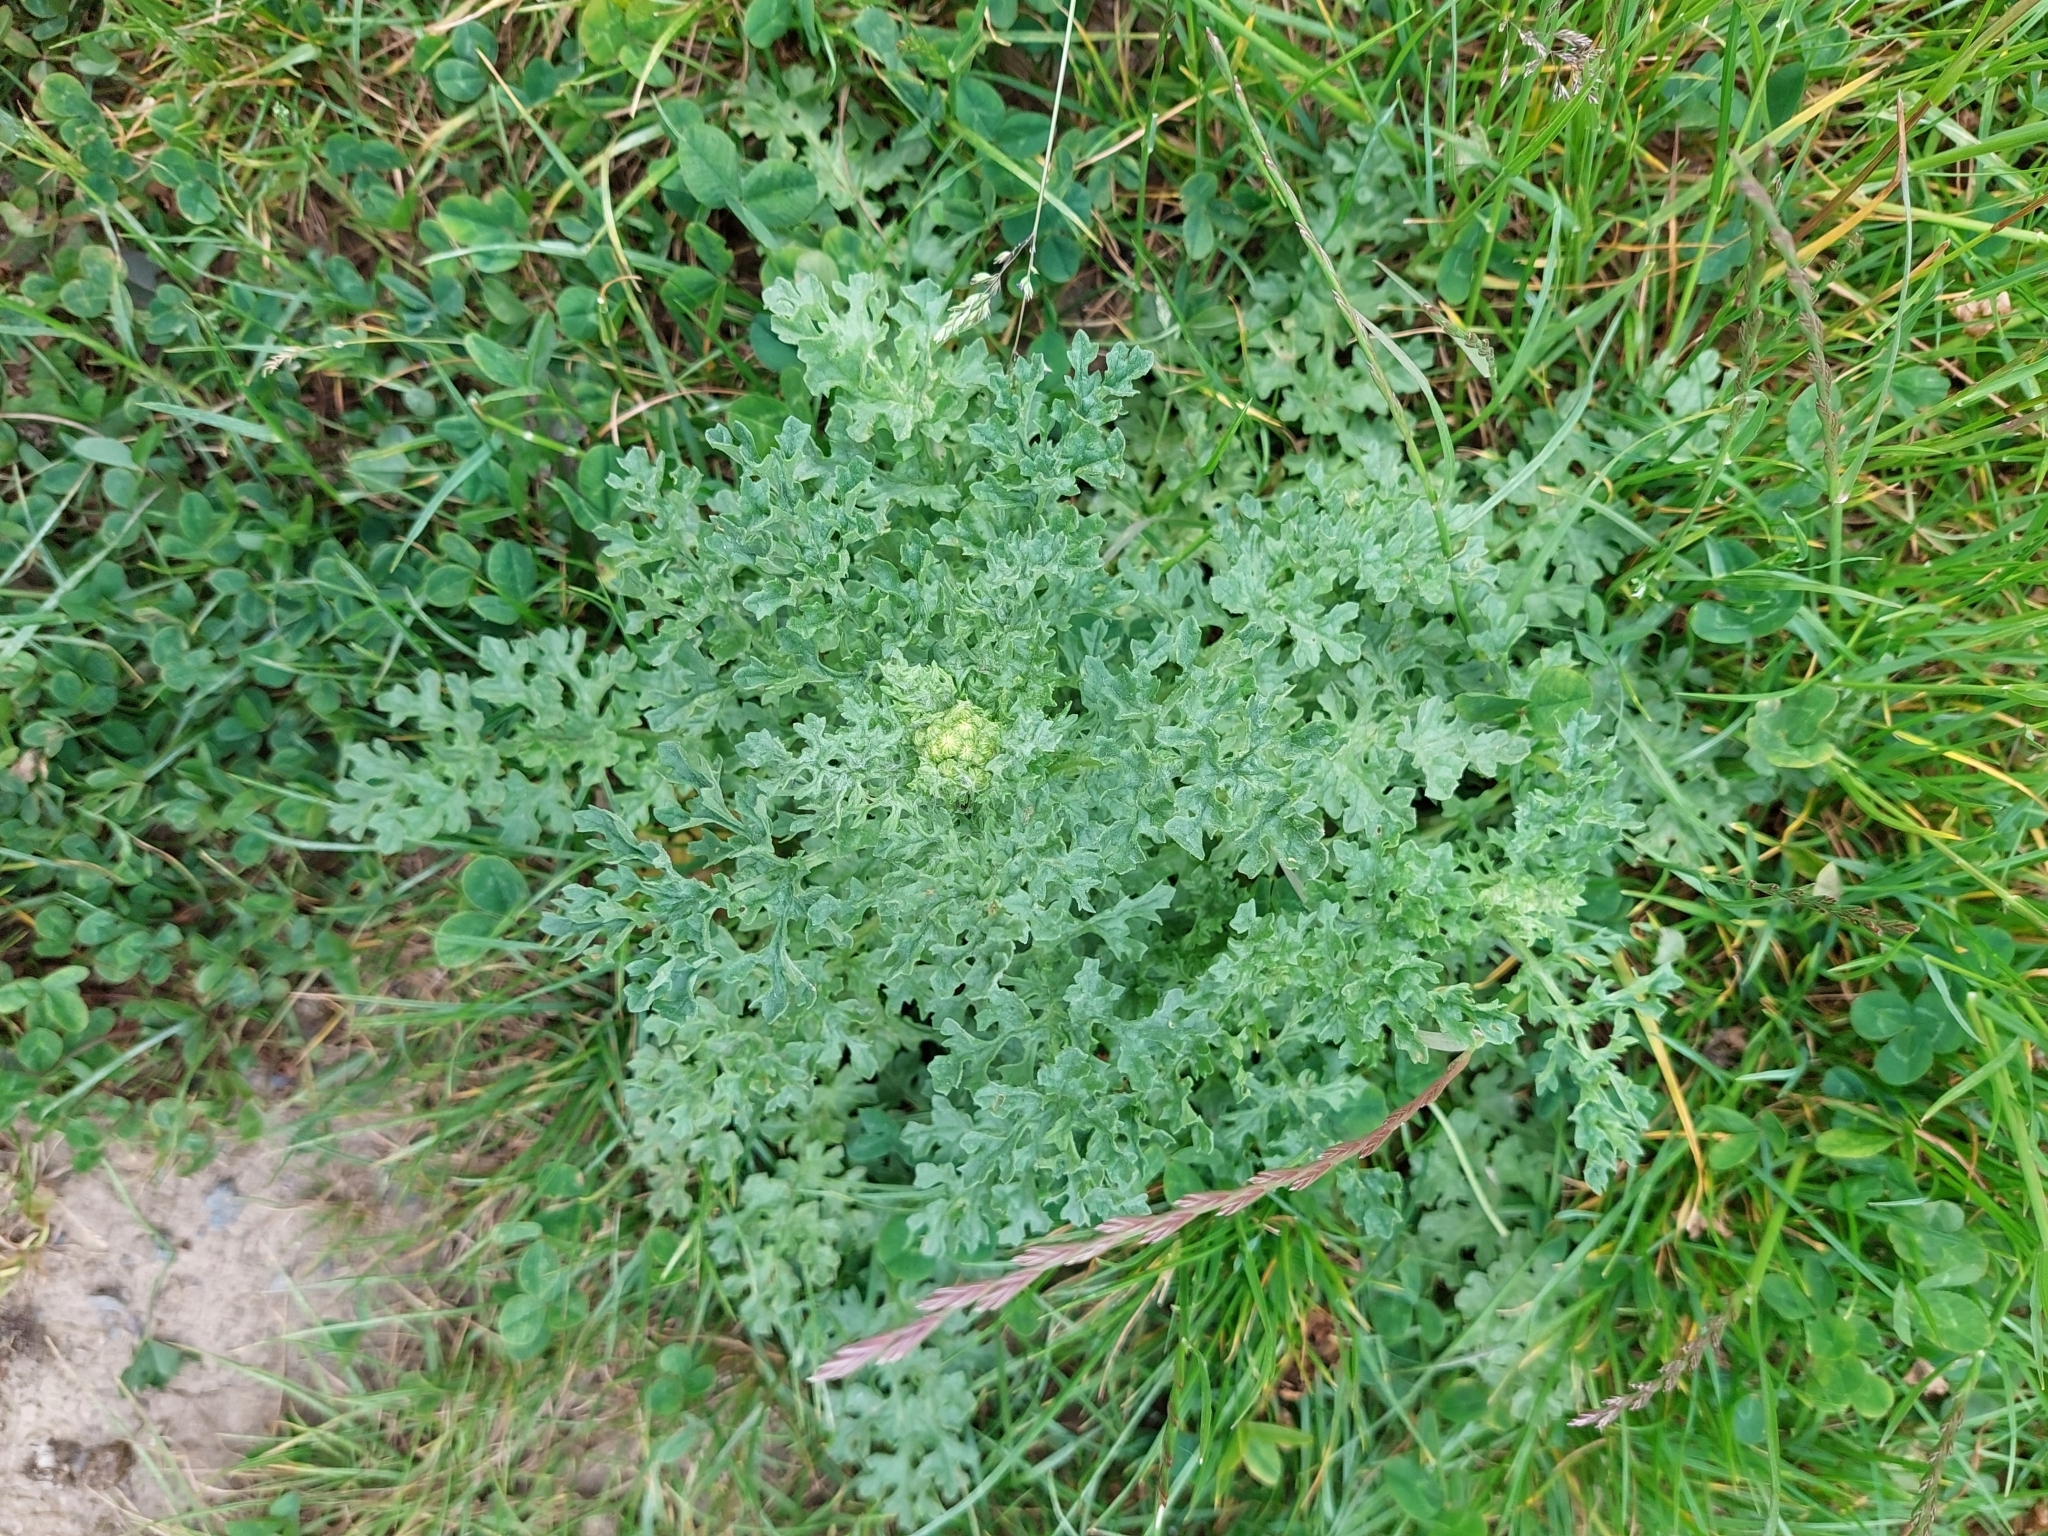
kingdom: Plantae
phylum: Tracheophyta
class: Magnoliopsida
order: Asterales
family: Asteraceae
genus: Jacobaea
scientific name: Jacobaea vulgaris
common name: Stinking willie
